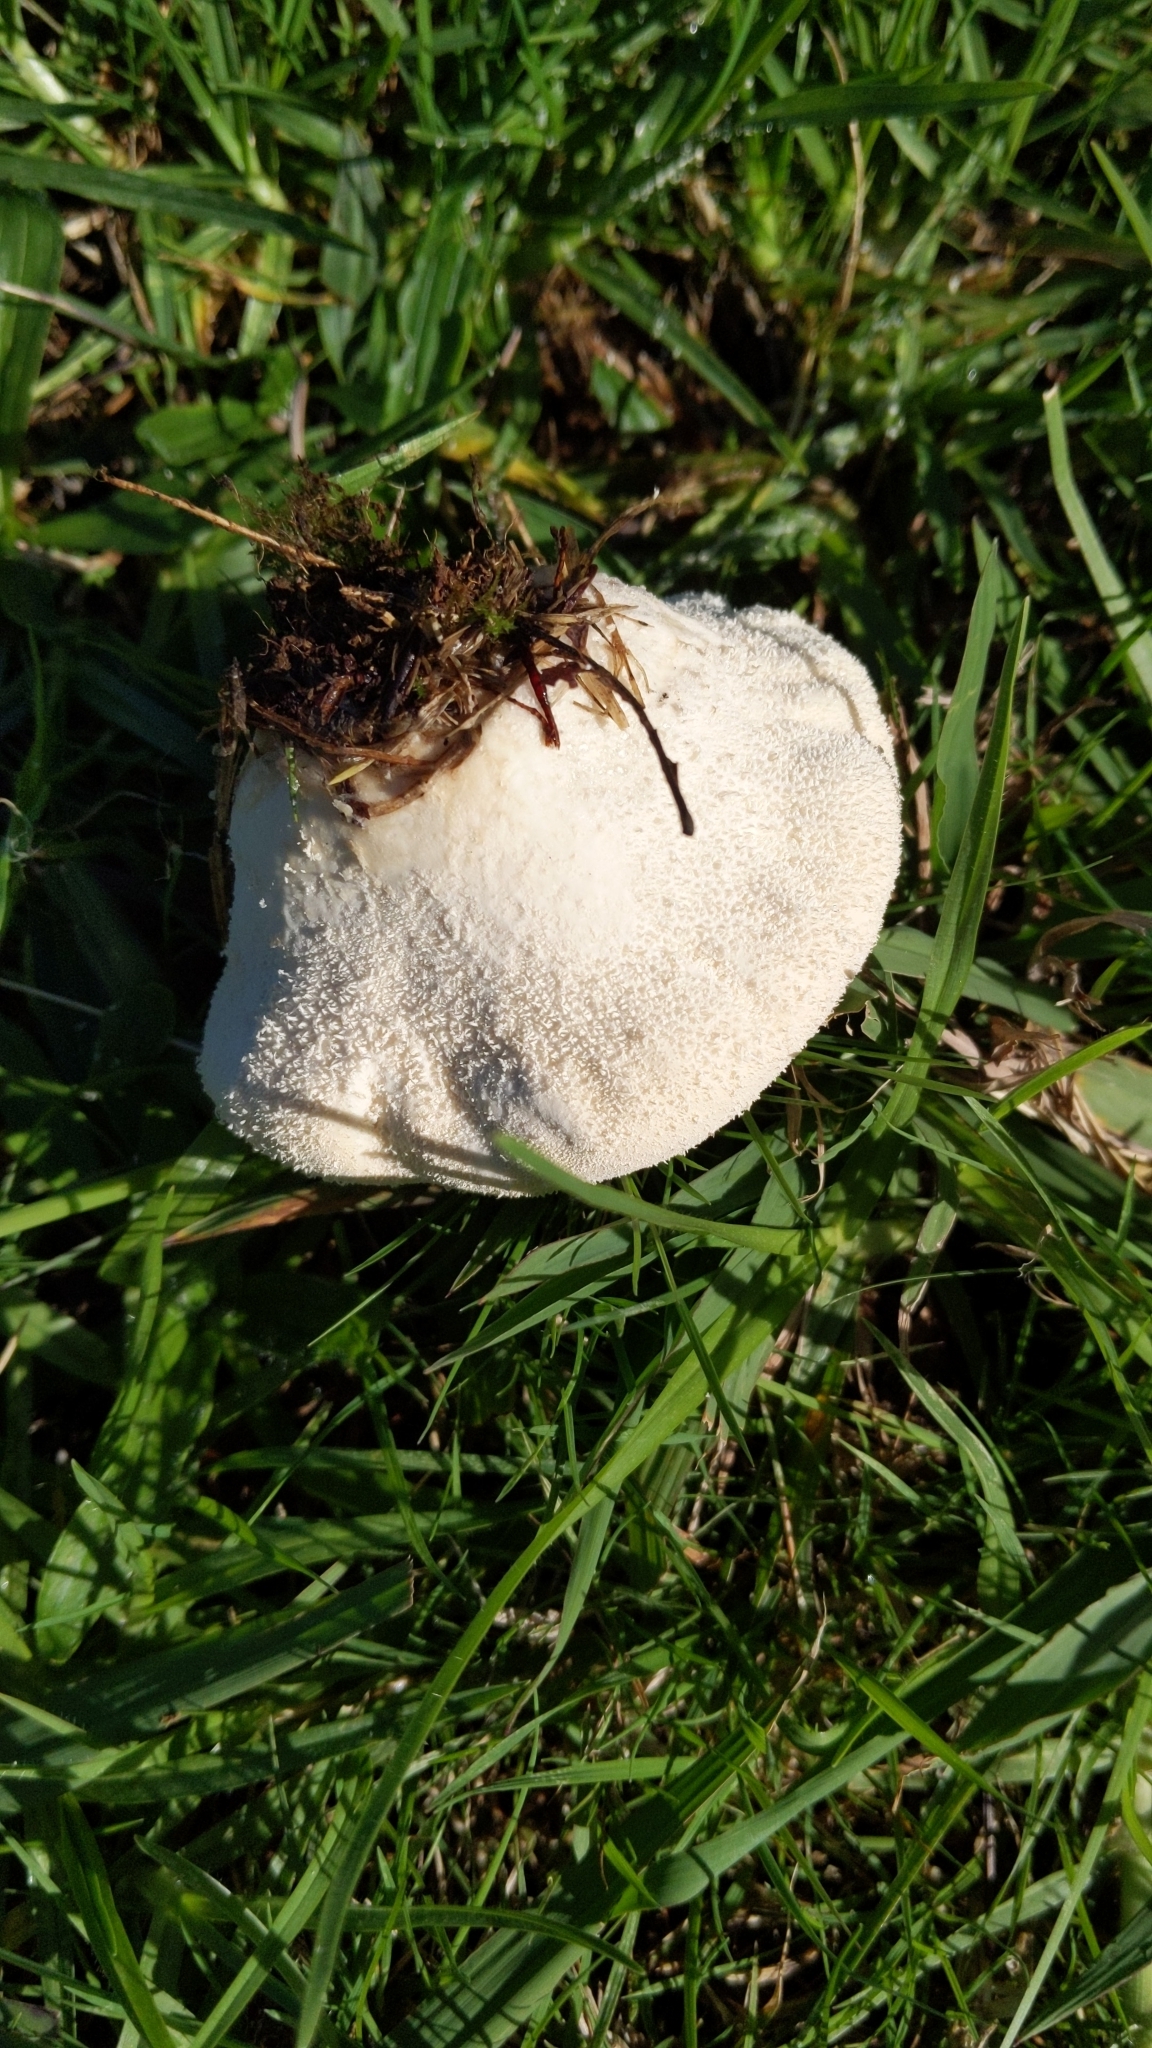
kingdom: Fungi
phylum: Basidiomycota
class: Agaricomycetes
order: Agaricales
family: Lycoperdaceae
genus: Lycoperdon
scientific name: Lycoperdon pratense
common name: Meadow puffball
